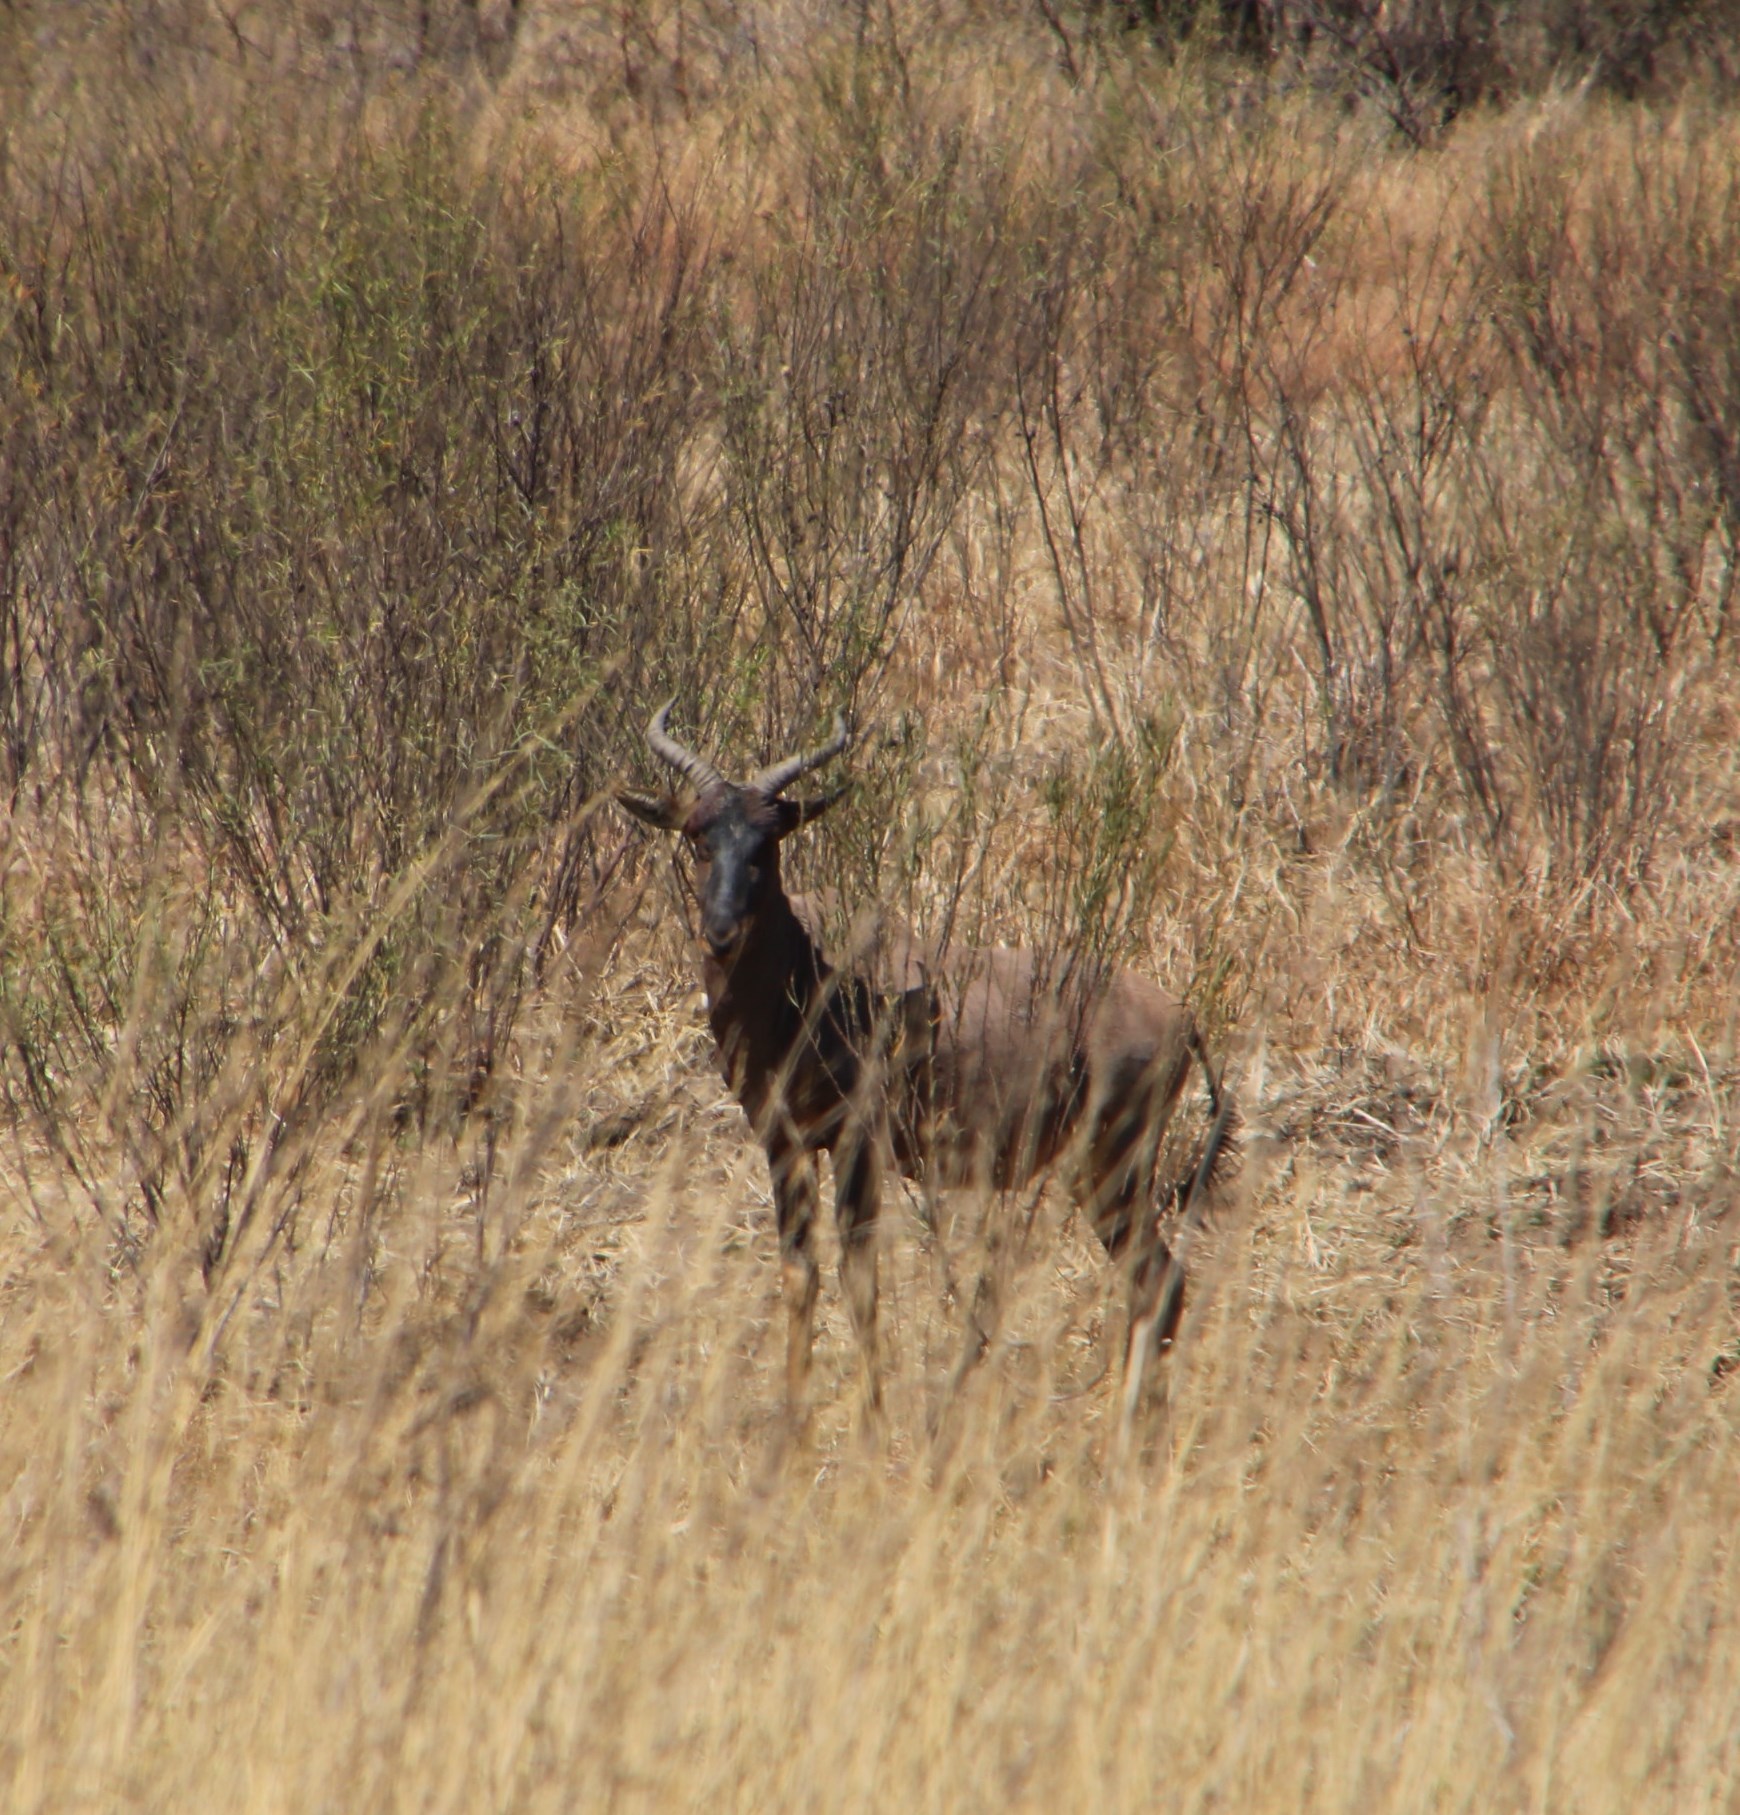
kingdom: Animalia
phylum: Chordata
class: Mammalia
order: Artiodactyla
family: Bovidae
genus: Damaliscus
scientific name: Damaliscus lunatus
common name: Common tsessebe
